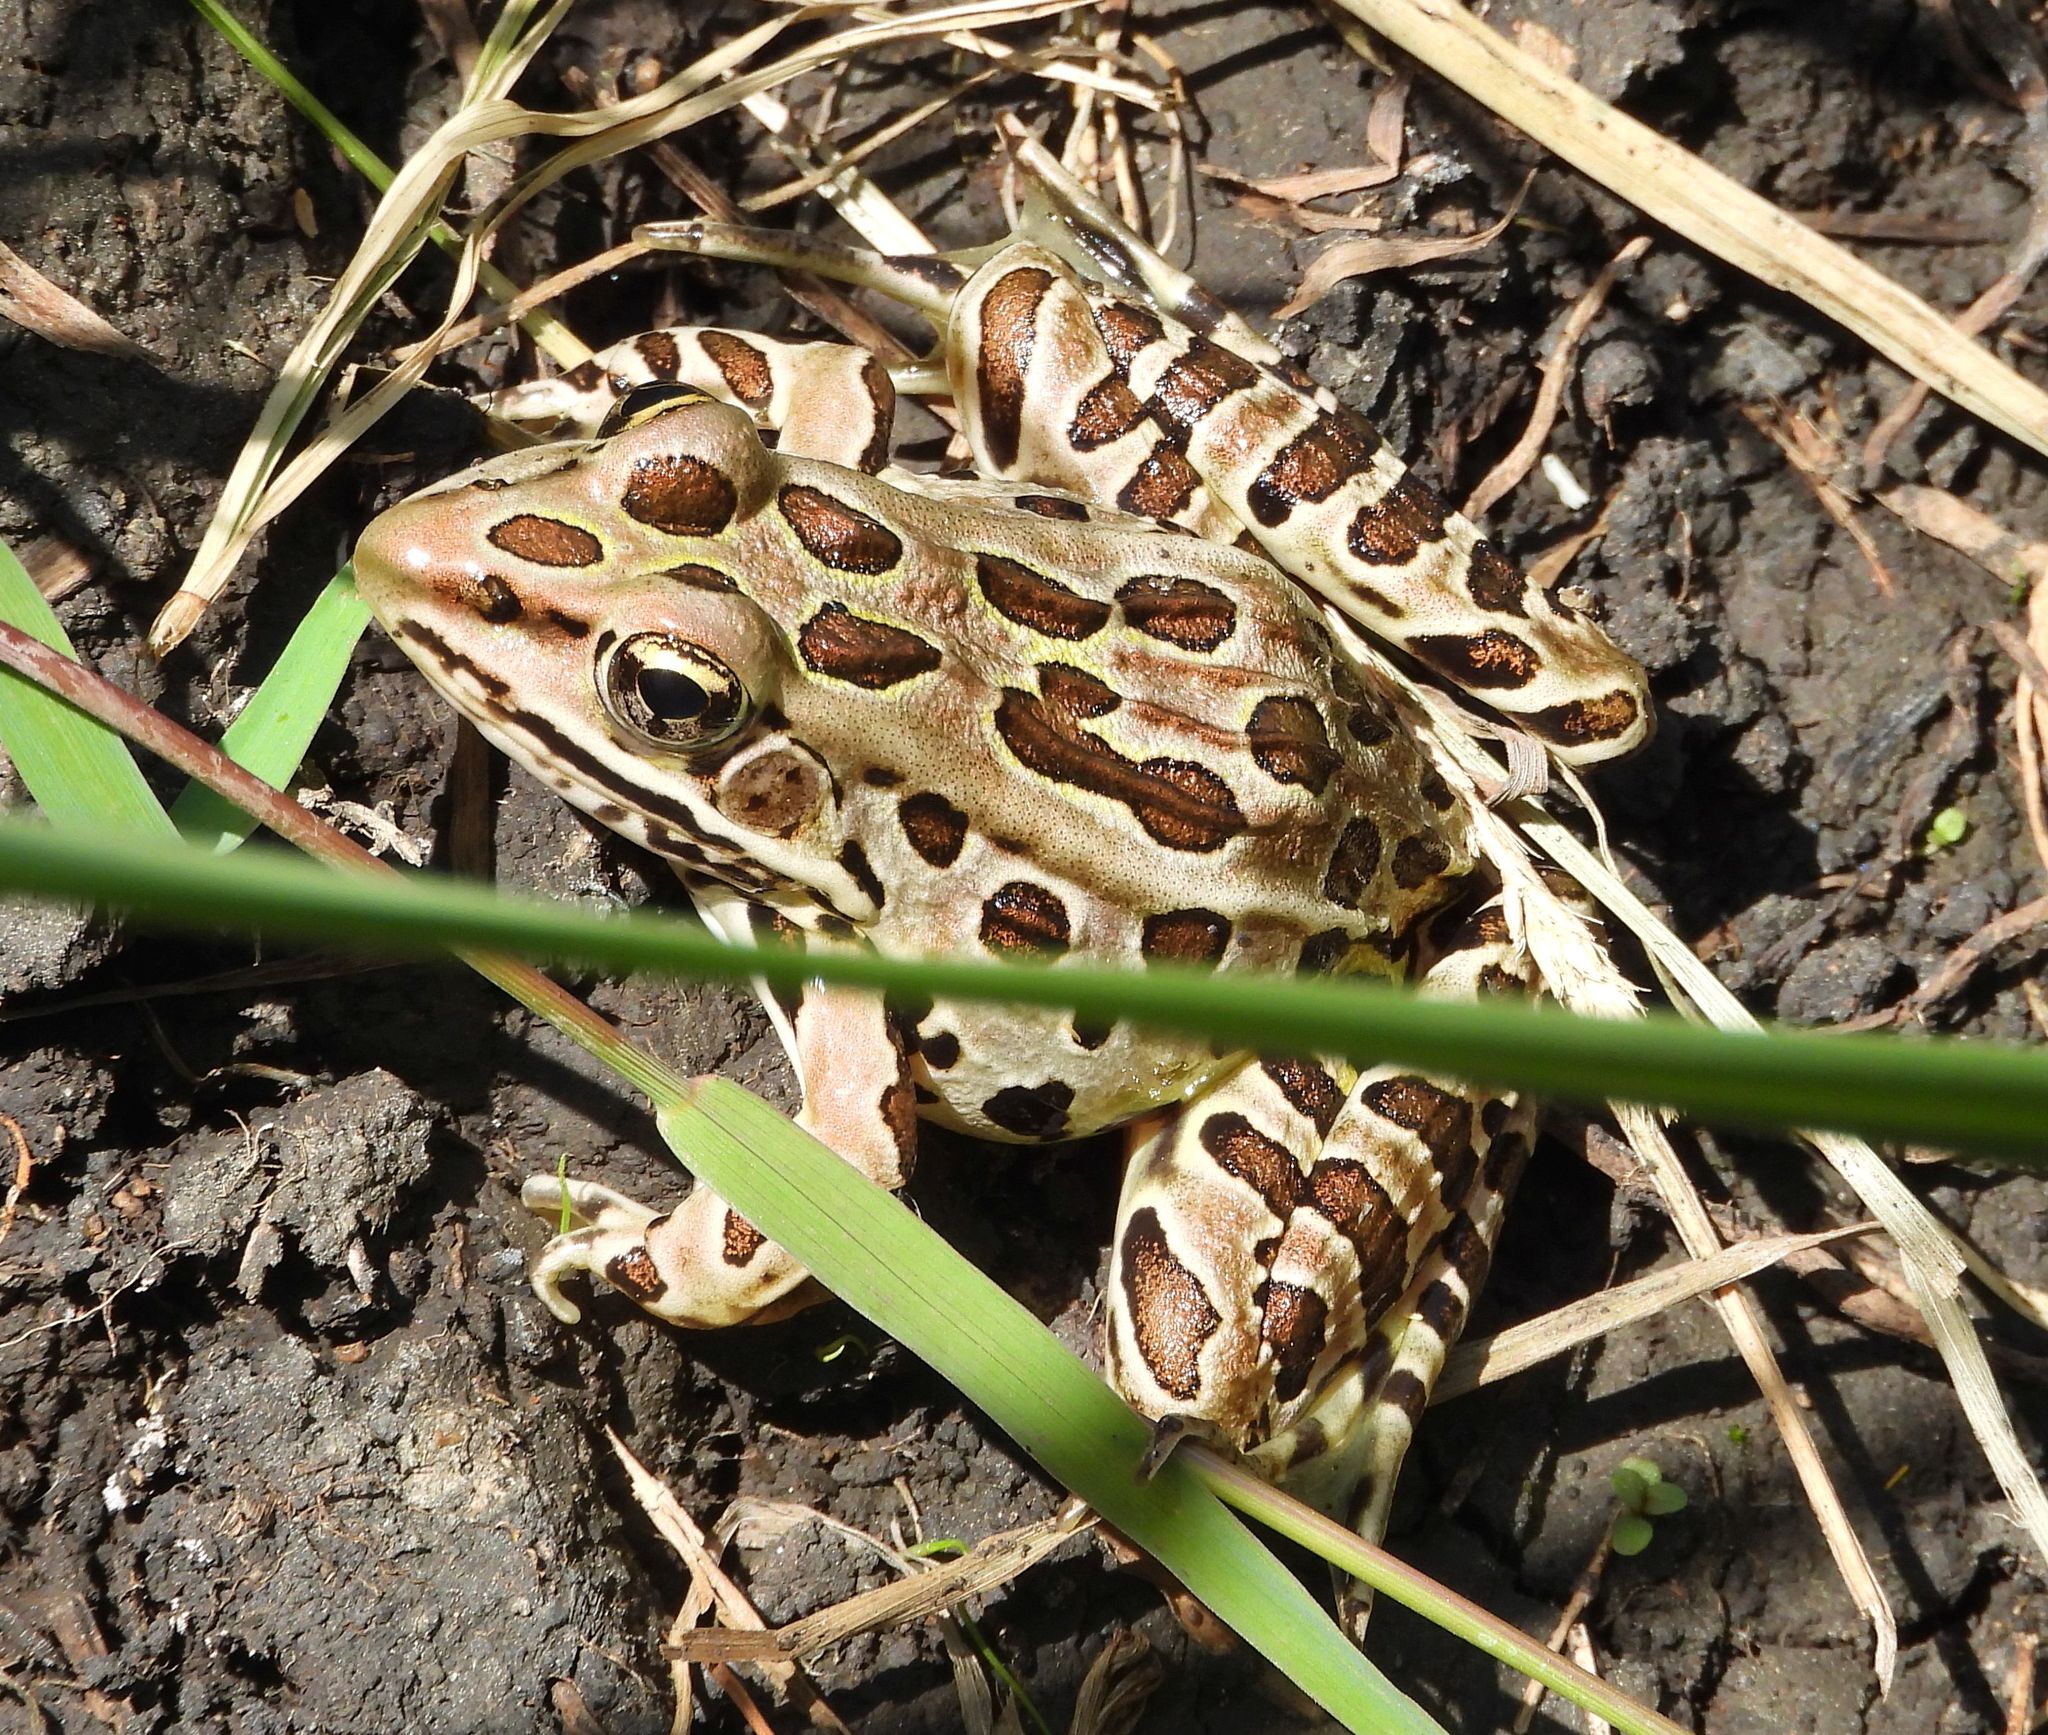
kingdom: Animalia
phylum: Chordata
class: Amphibia
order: Anura
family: Ranidae
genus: Lithobates
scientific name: Lithobates pipiens
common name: Northern leopard frog
